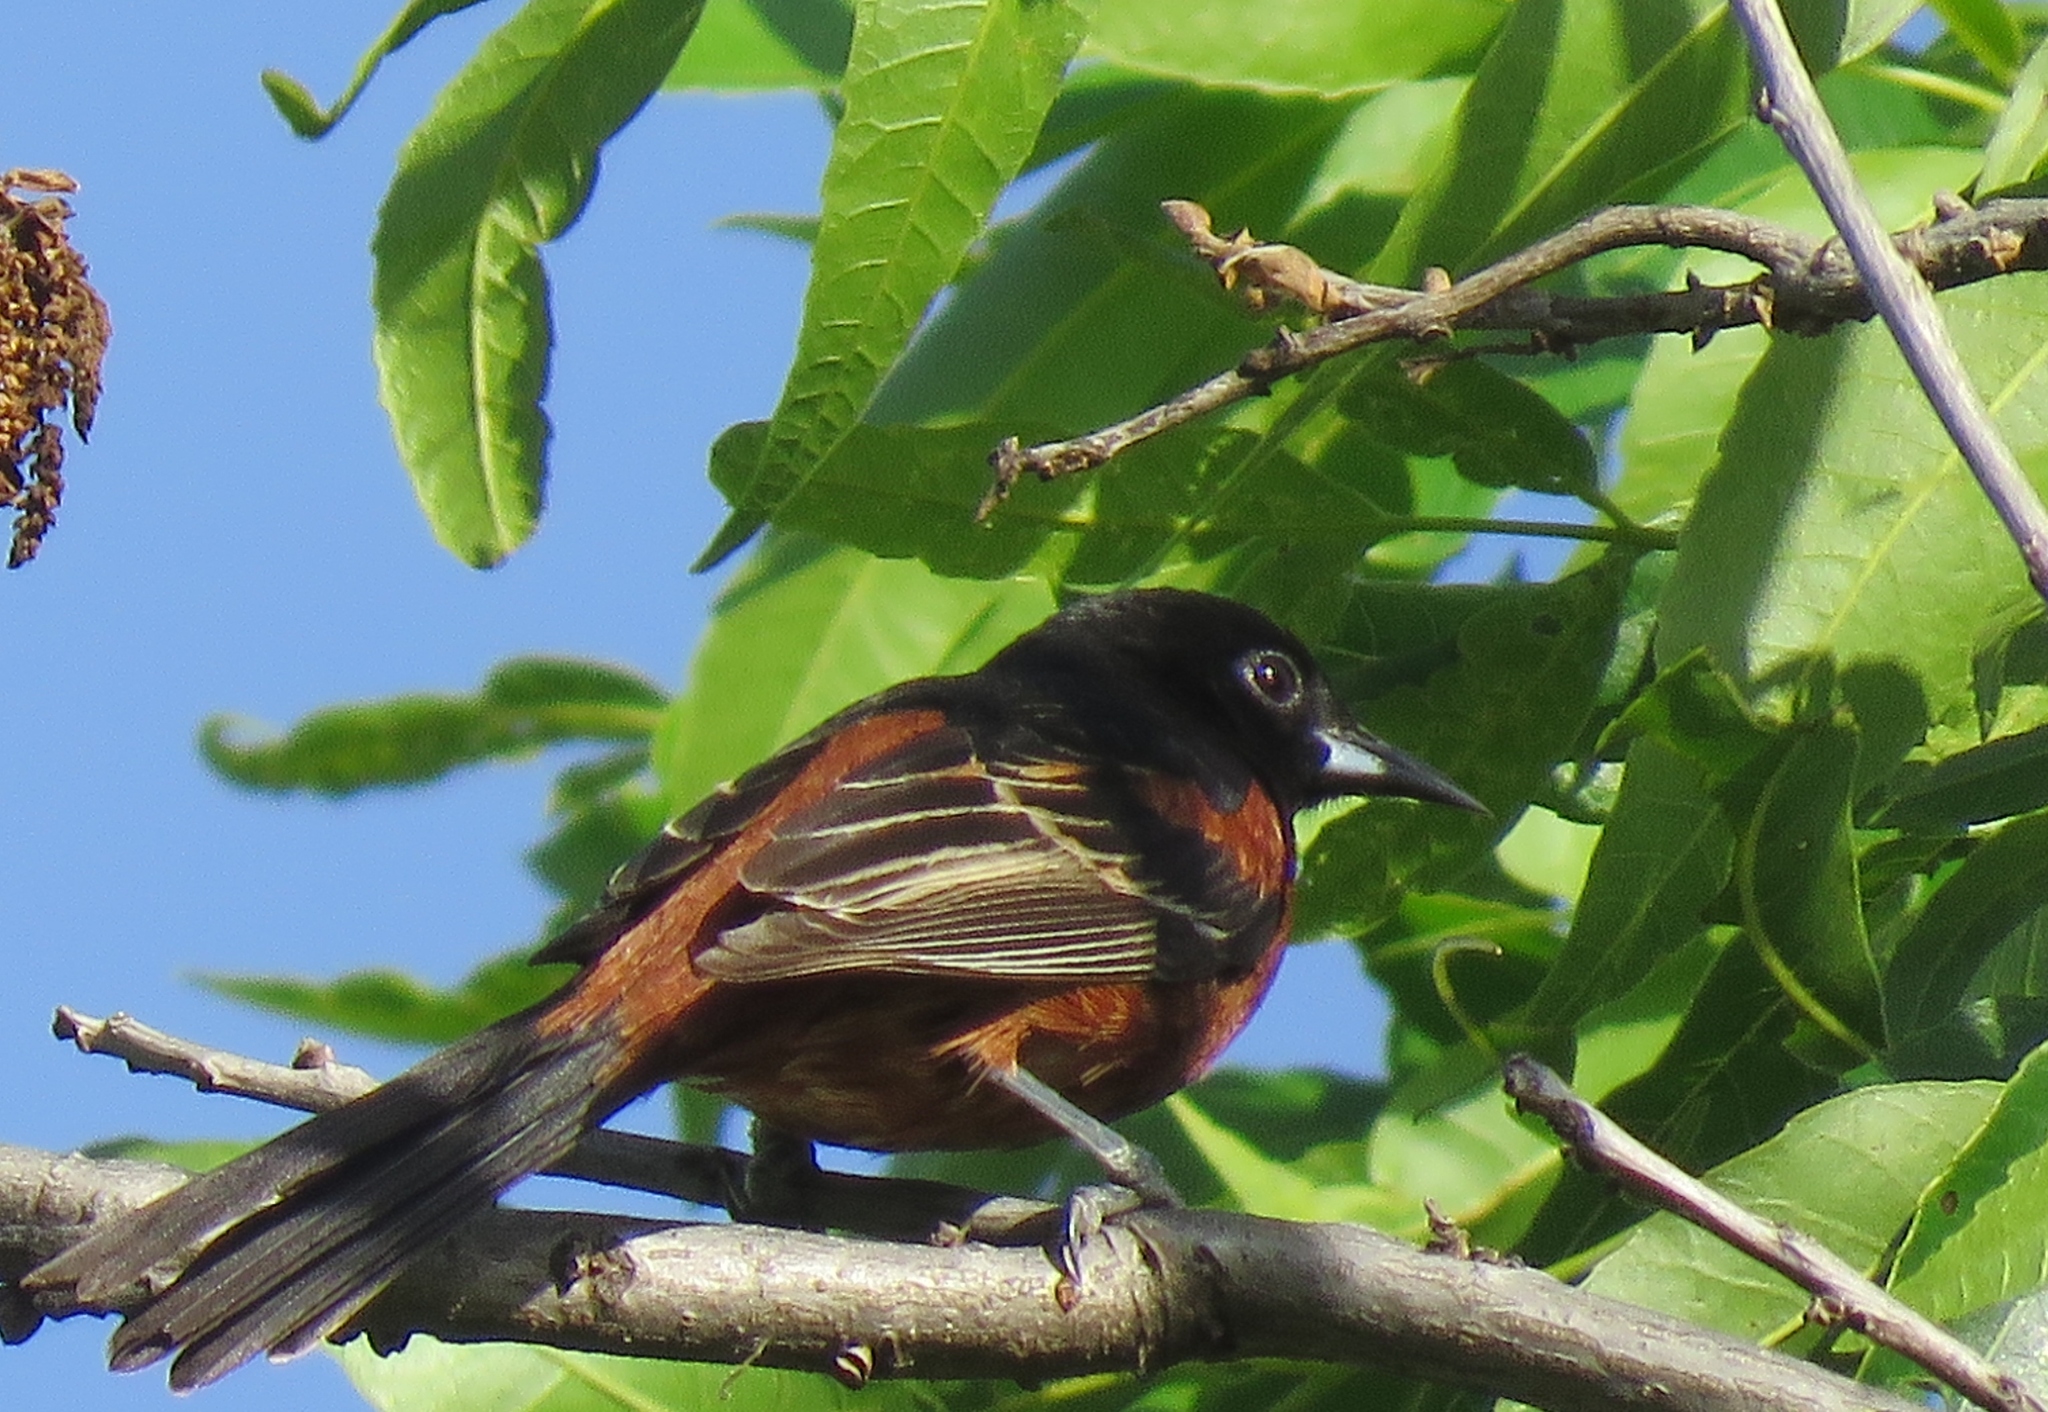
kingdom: Animalia
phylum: Chordata
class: Aves
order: Passeriformes
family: Icteridae
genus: Icterus
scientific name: Icterus spurius
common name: Orchard oriole
